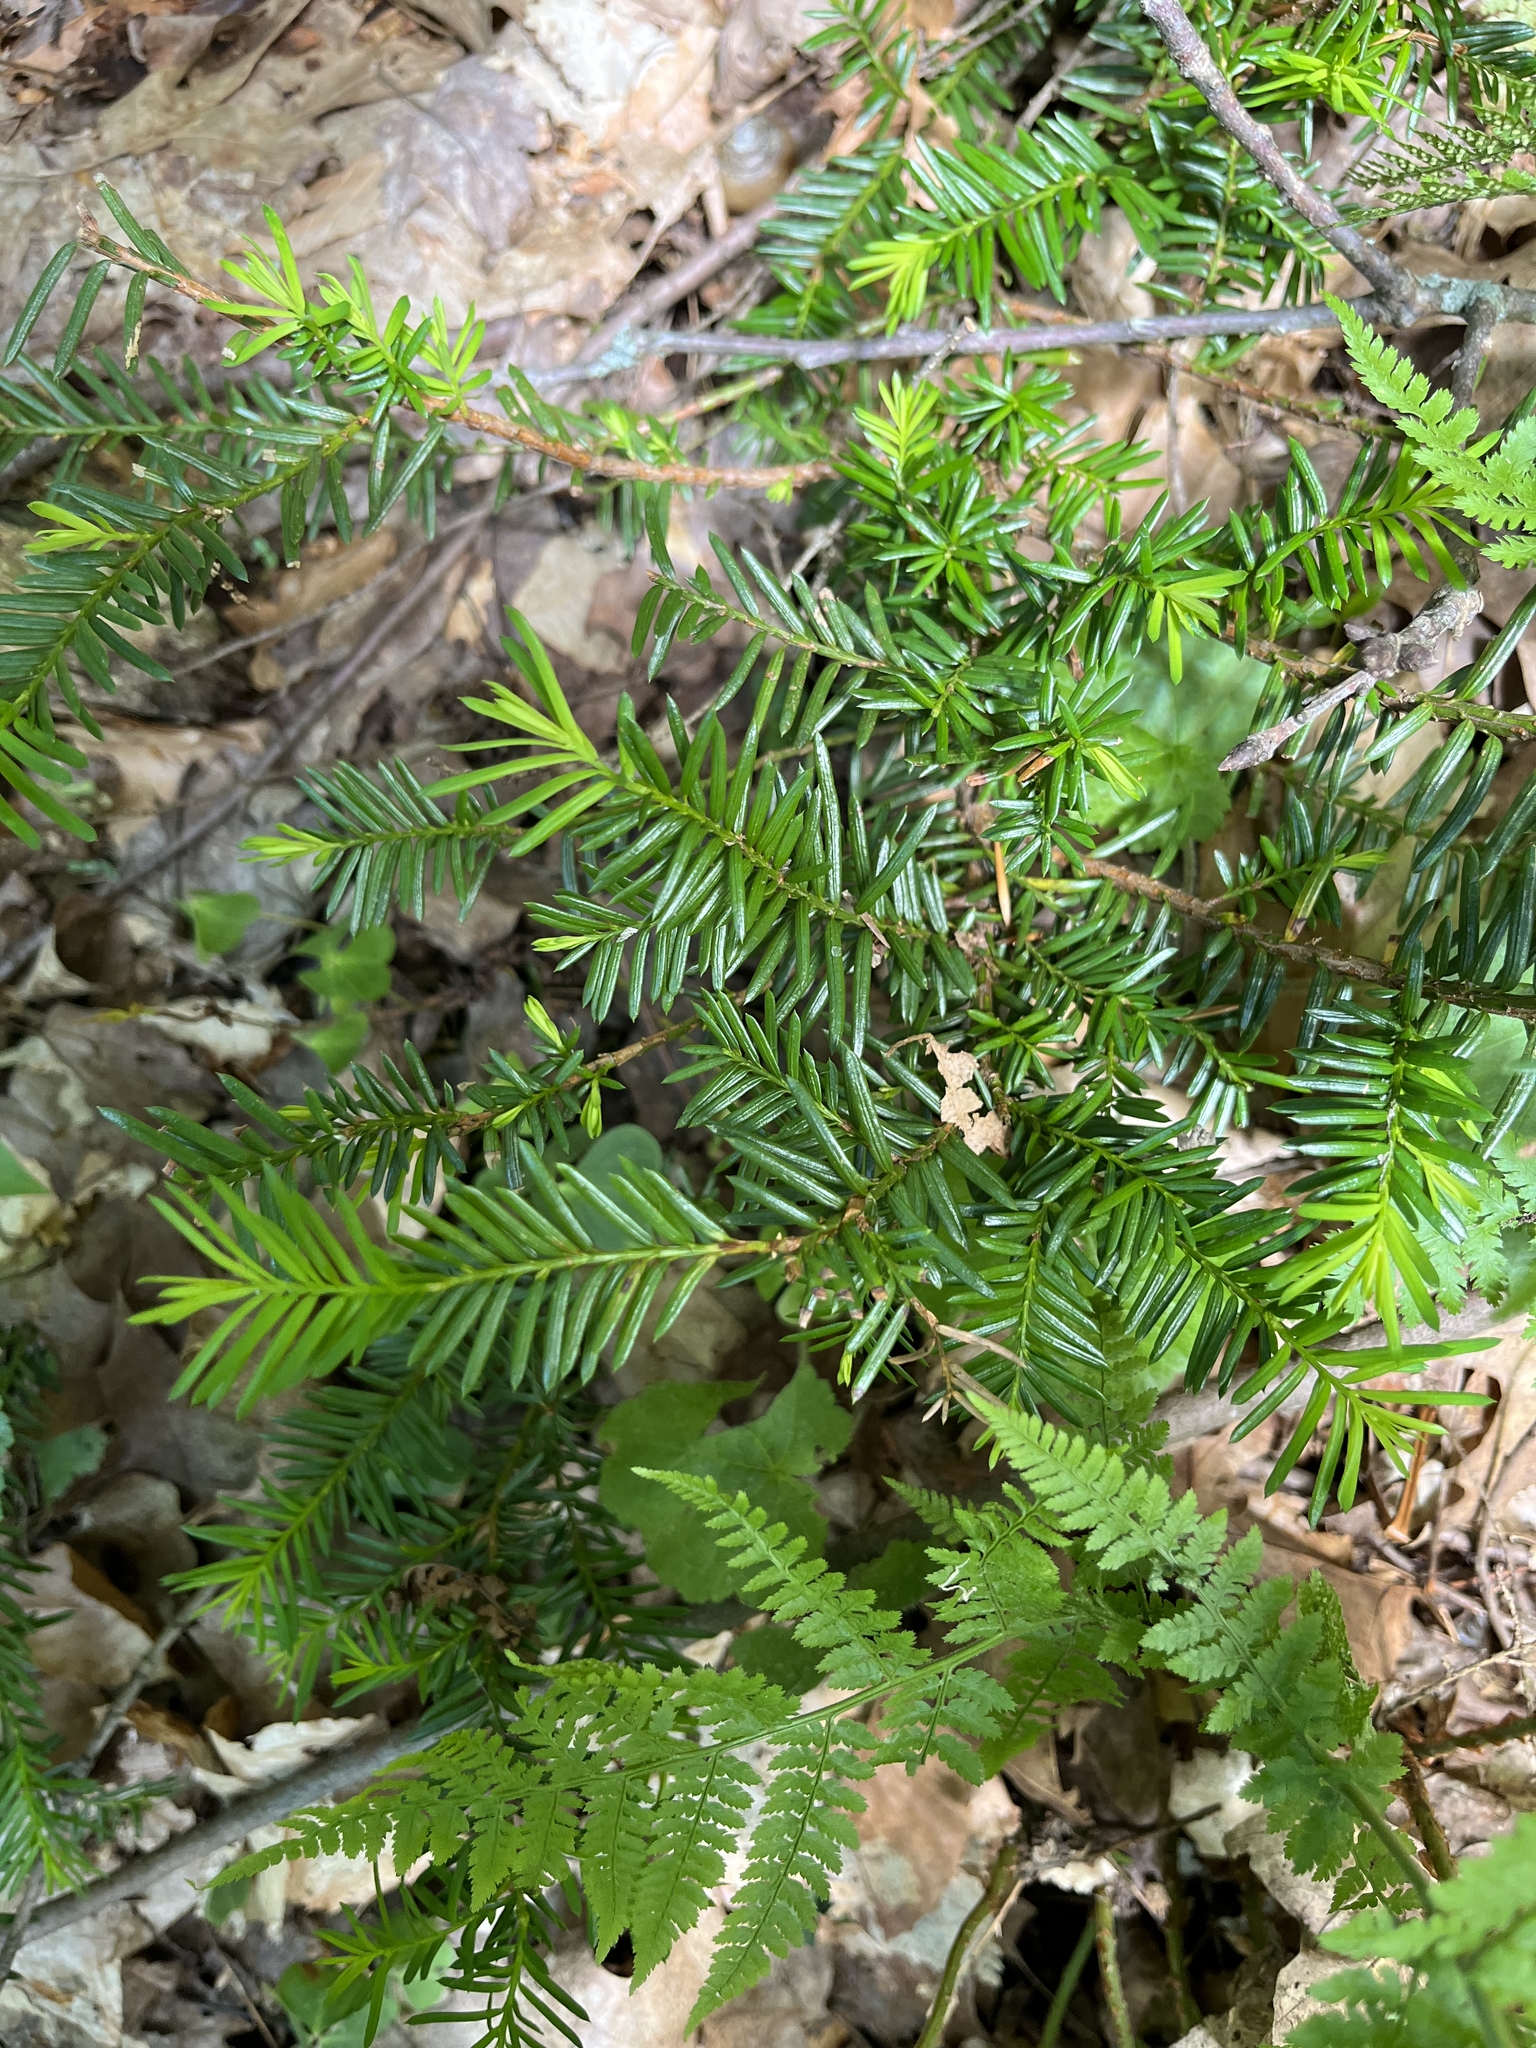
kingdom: Plantae
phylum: Tracheophyta
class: Pinopsida
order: Pinales
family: Taxaceae
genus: Taxus
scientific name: Taxus canadensis
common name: American yew
